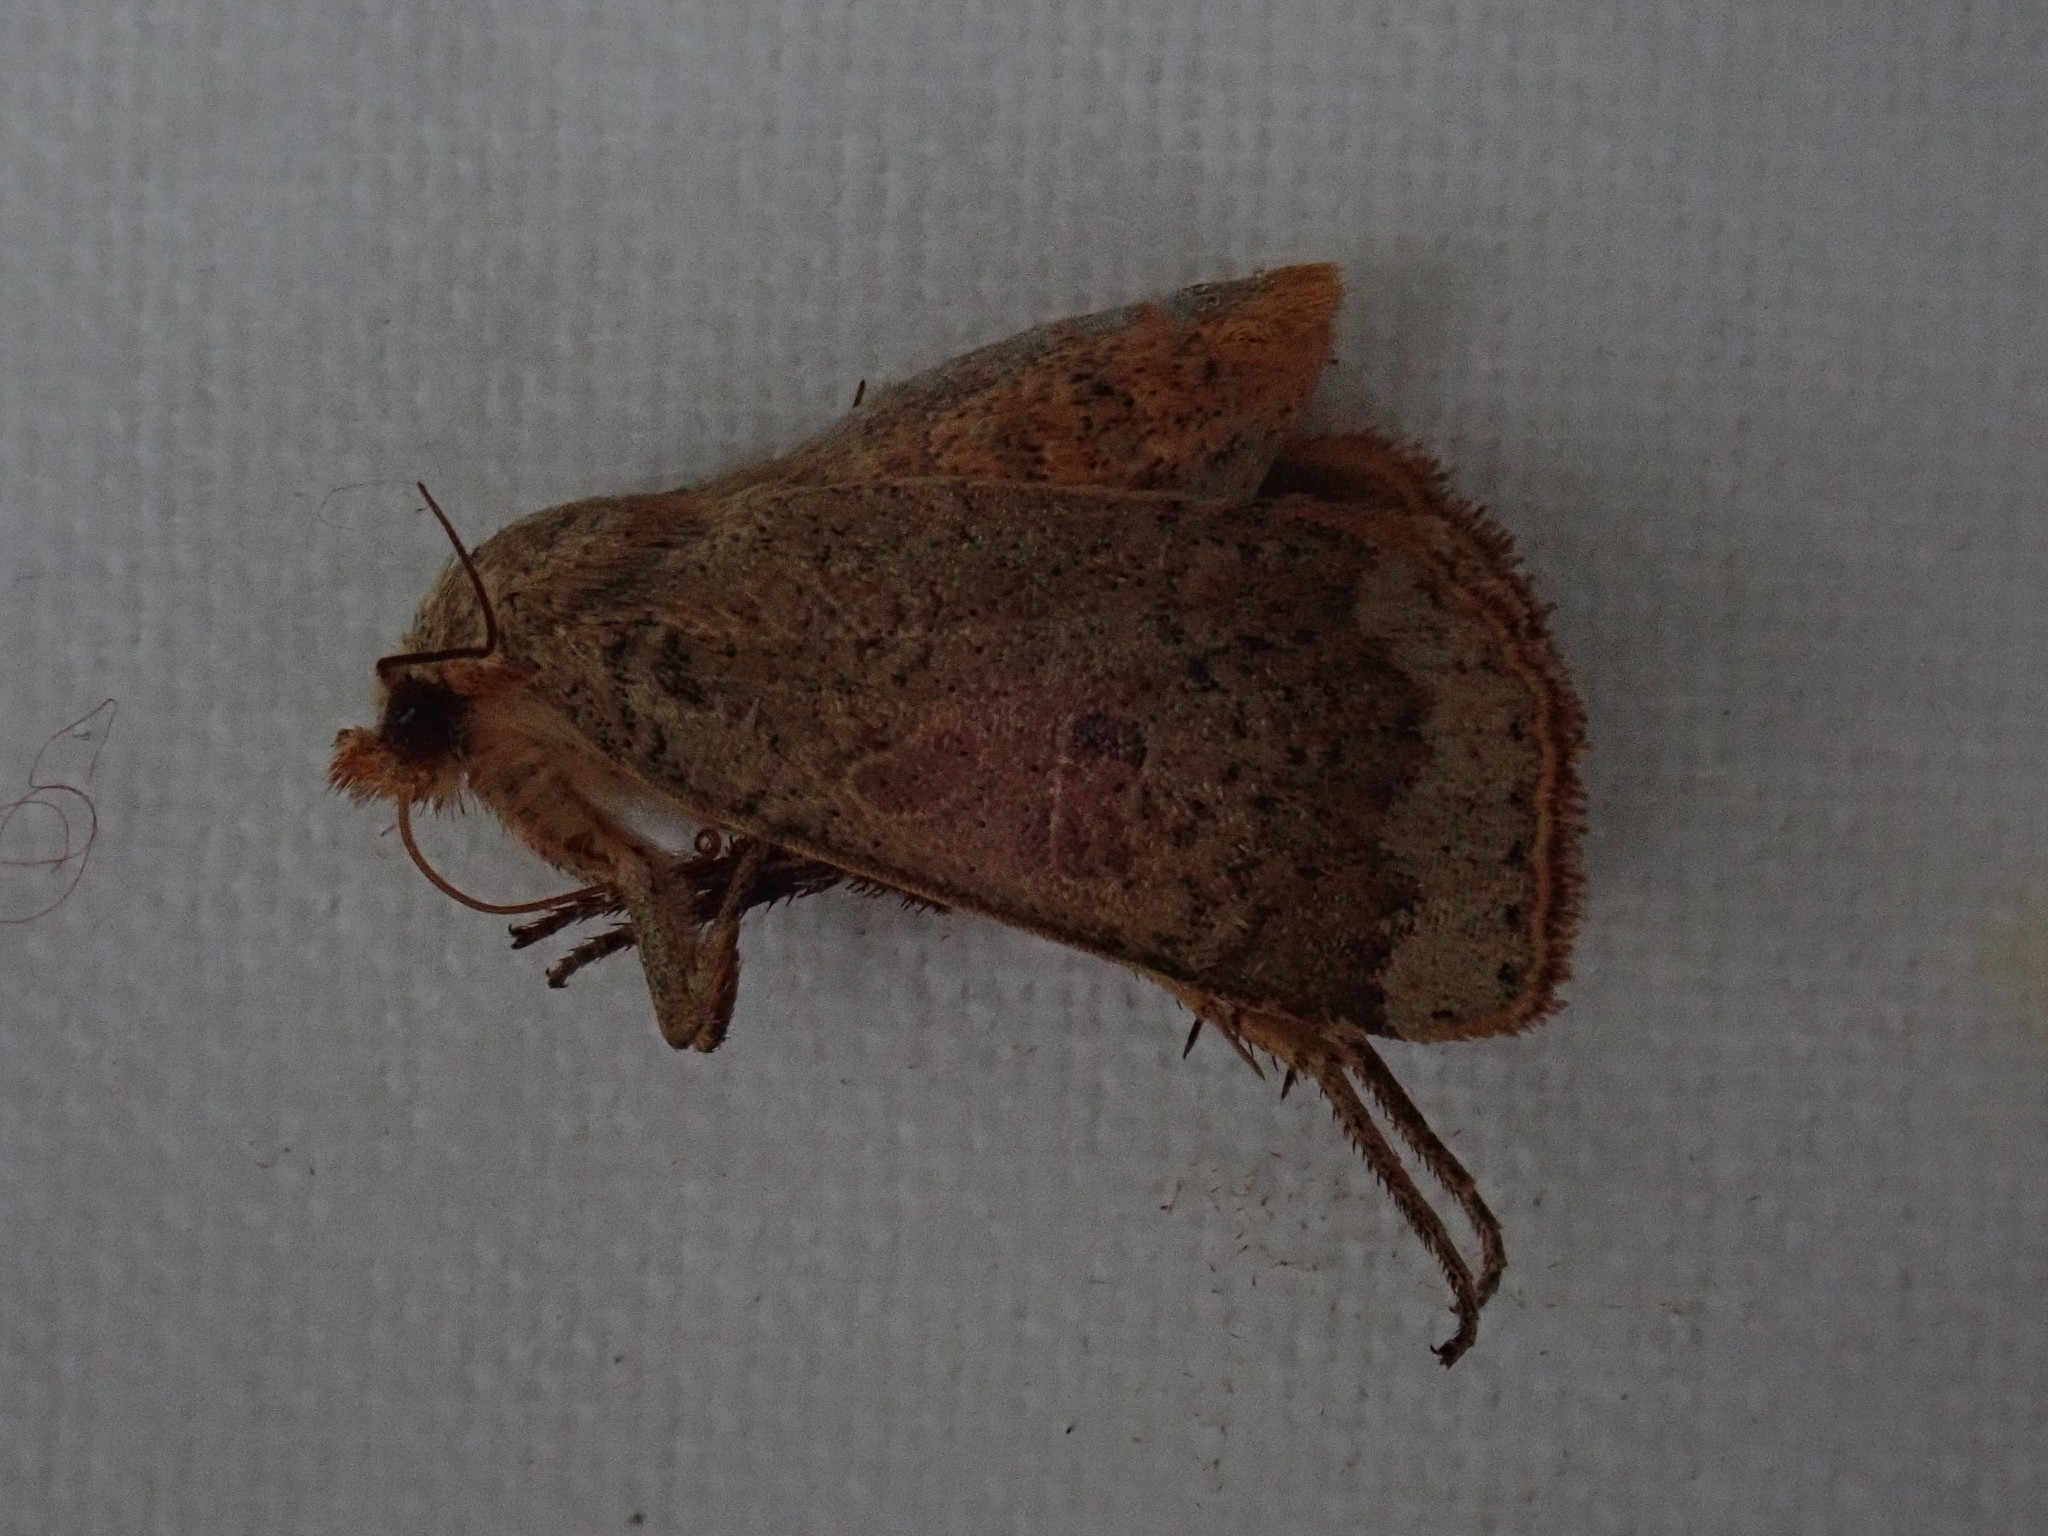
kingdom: Animalia
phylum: Arthropoda
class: Insecta
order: Lepidoptera
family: Noctuidae
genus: Abagrotis
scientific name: Abagrotis alternata
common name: Greater red dart
